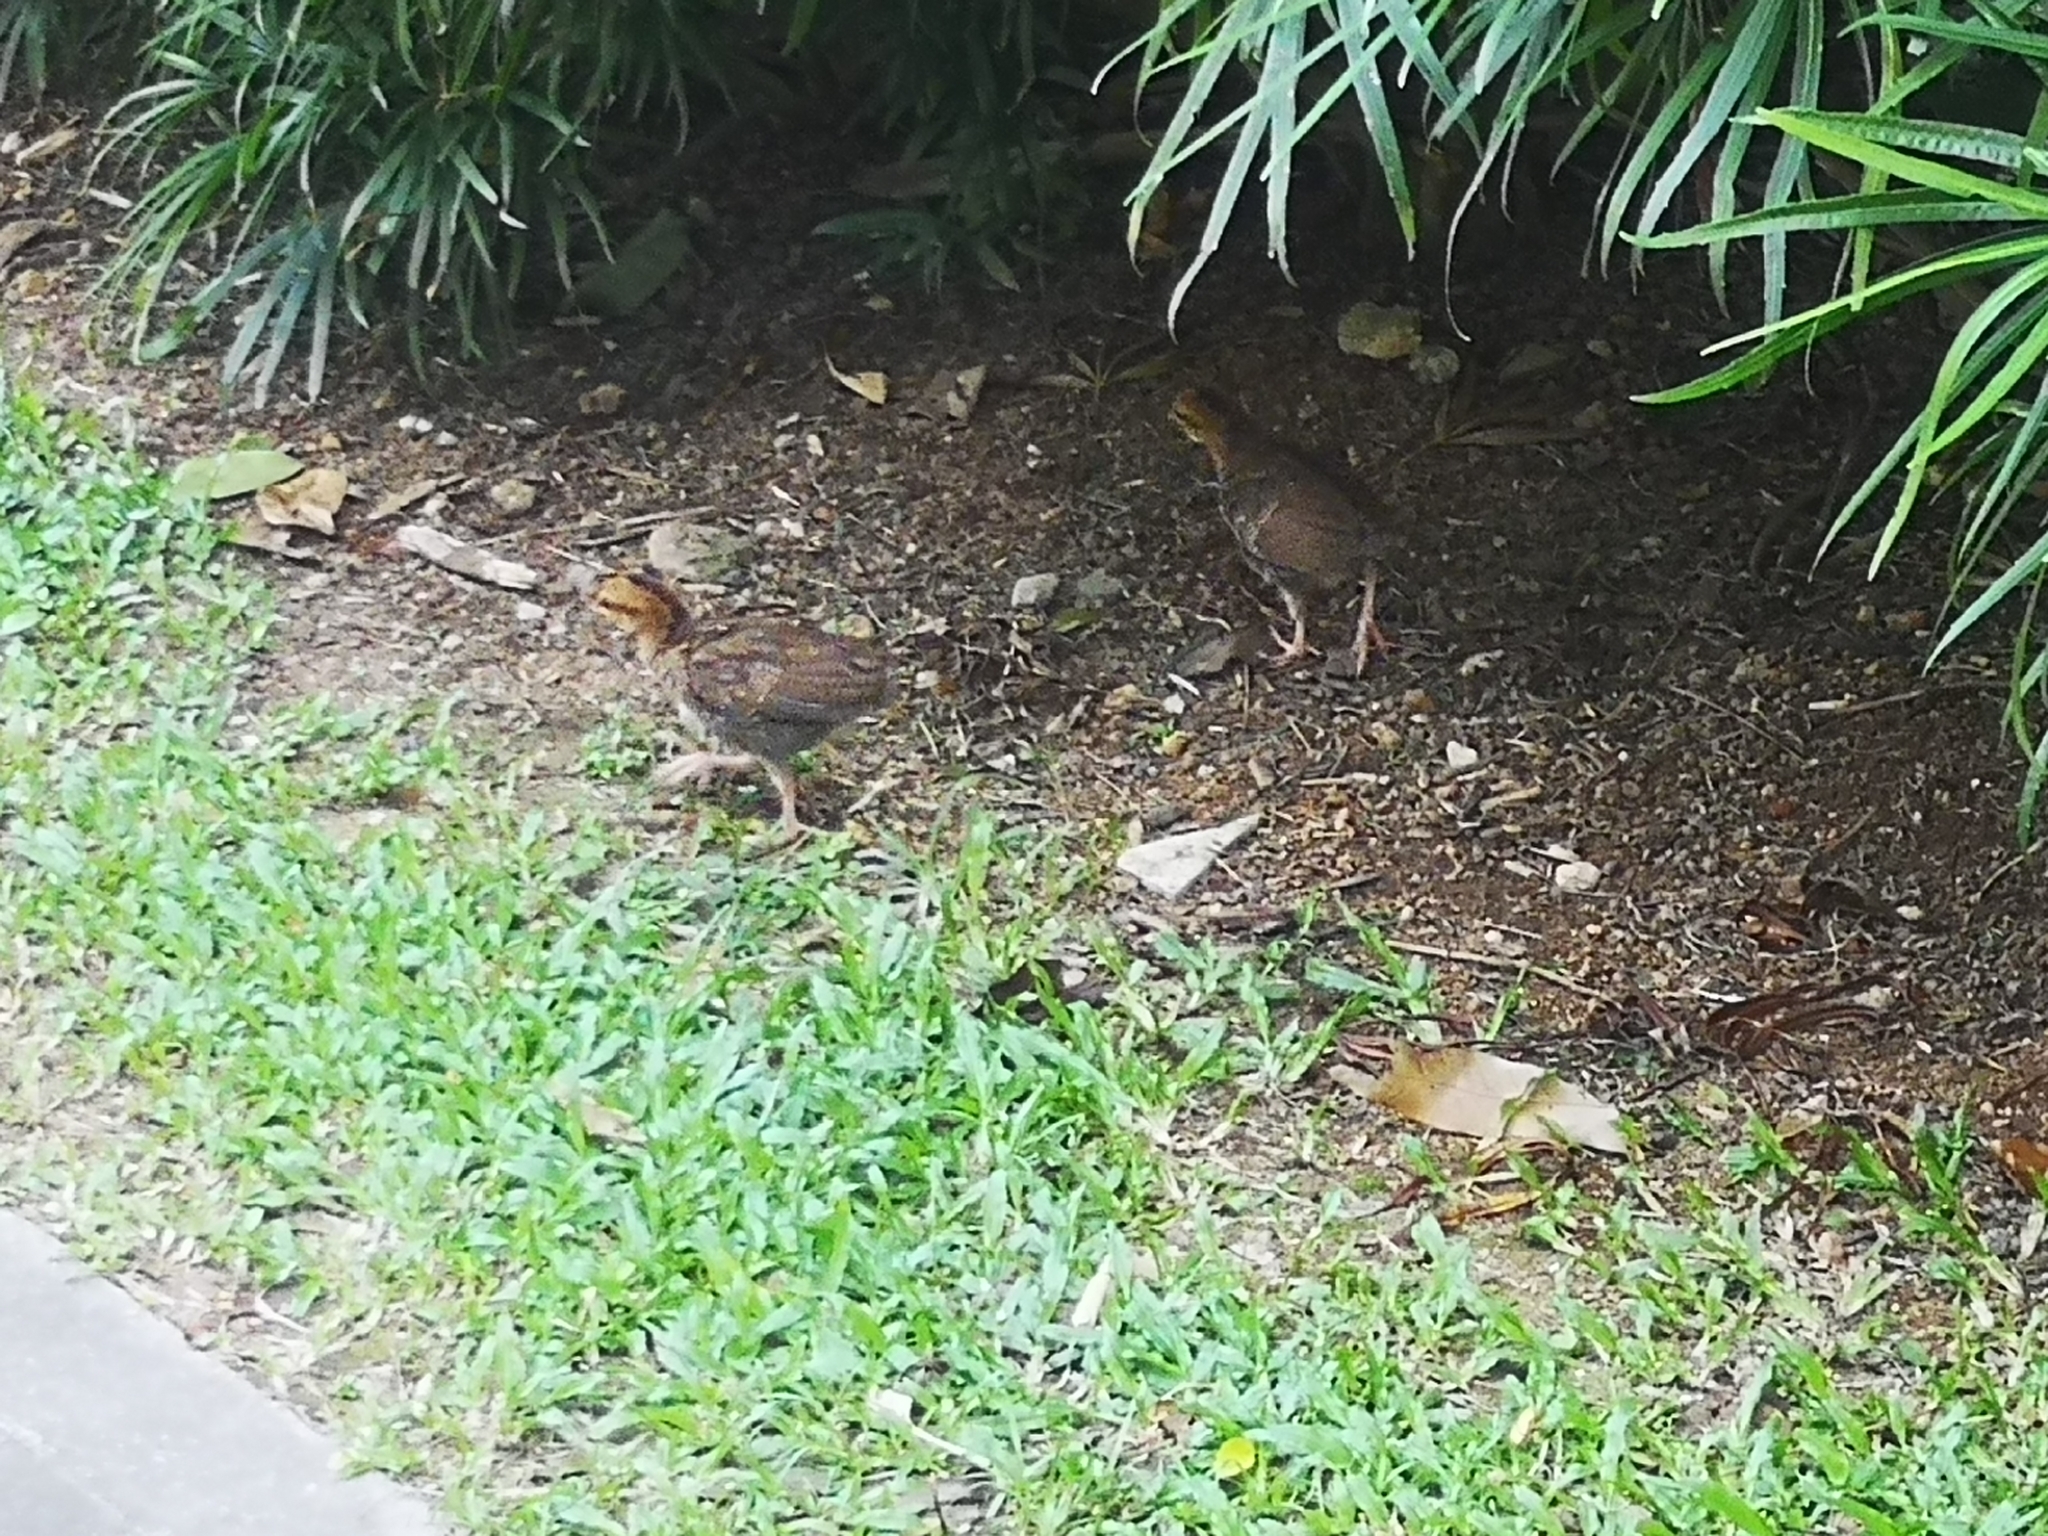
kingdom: Animalia
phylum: Chordata
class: Aves
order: Galliformes
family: Phasianidae
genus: Gallus
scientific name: Gallus gallus
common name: Red junglefowl
